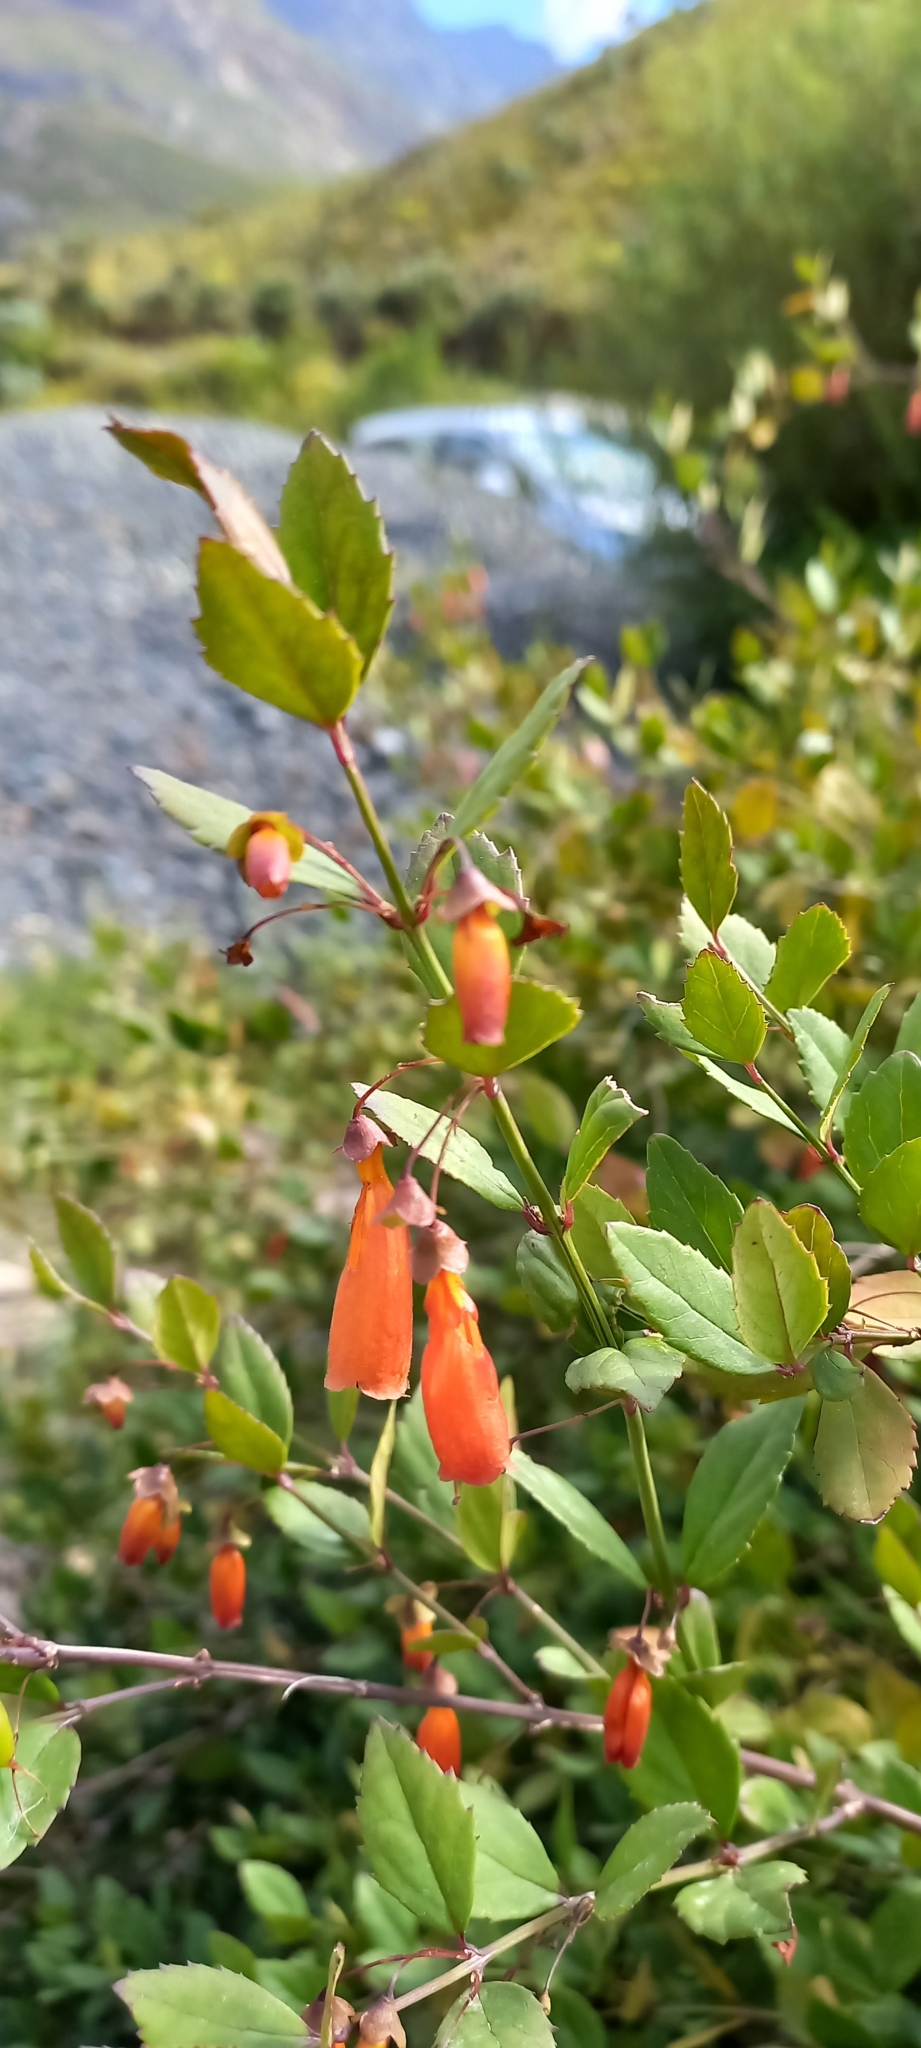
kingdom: Plantae
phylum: Tracheophyta
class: Magnoliopsida
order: Lamiales
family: Stilbaceae
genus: Halleria
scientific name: Halleria elliptica
